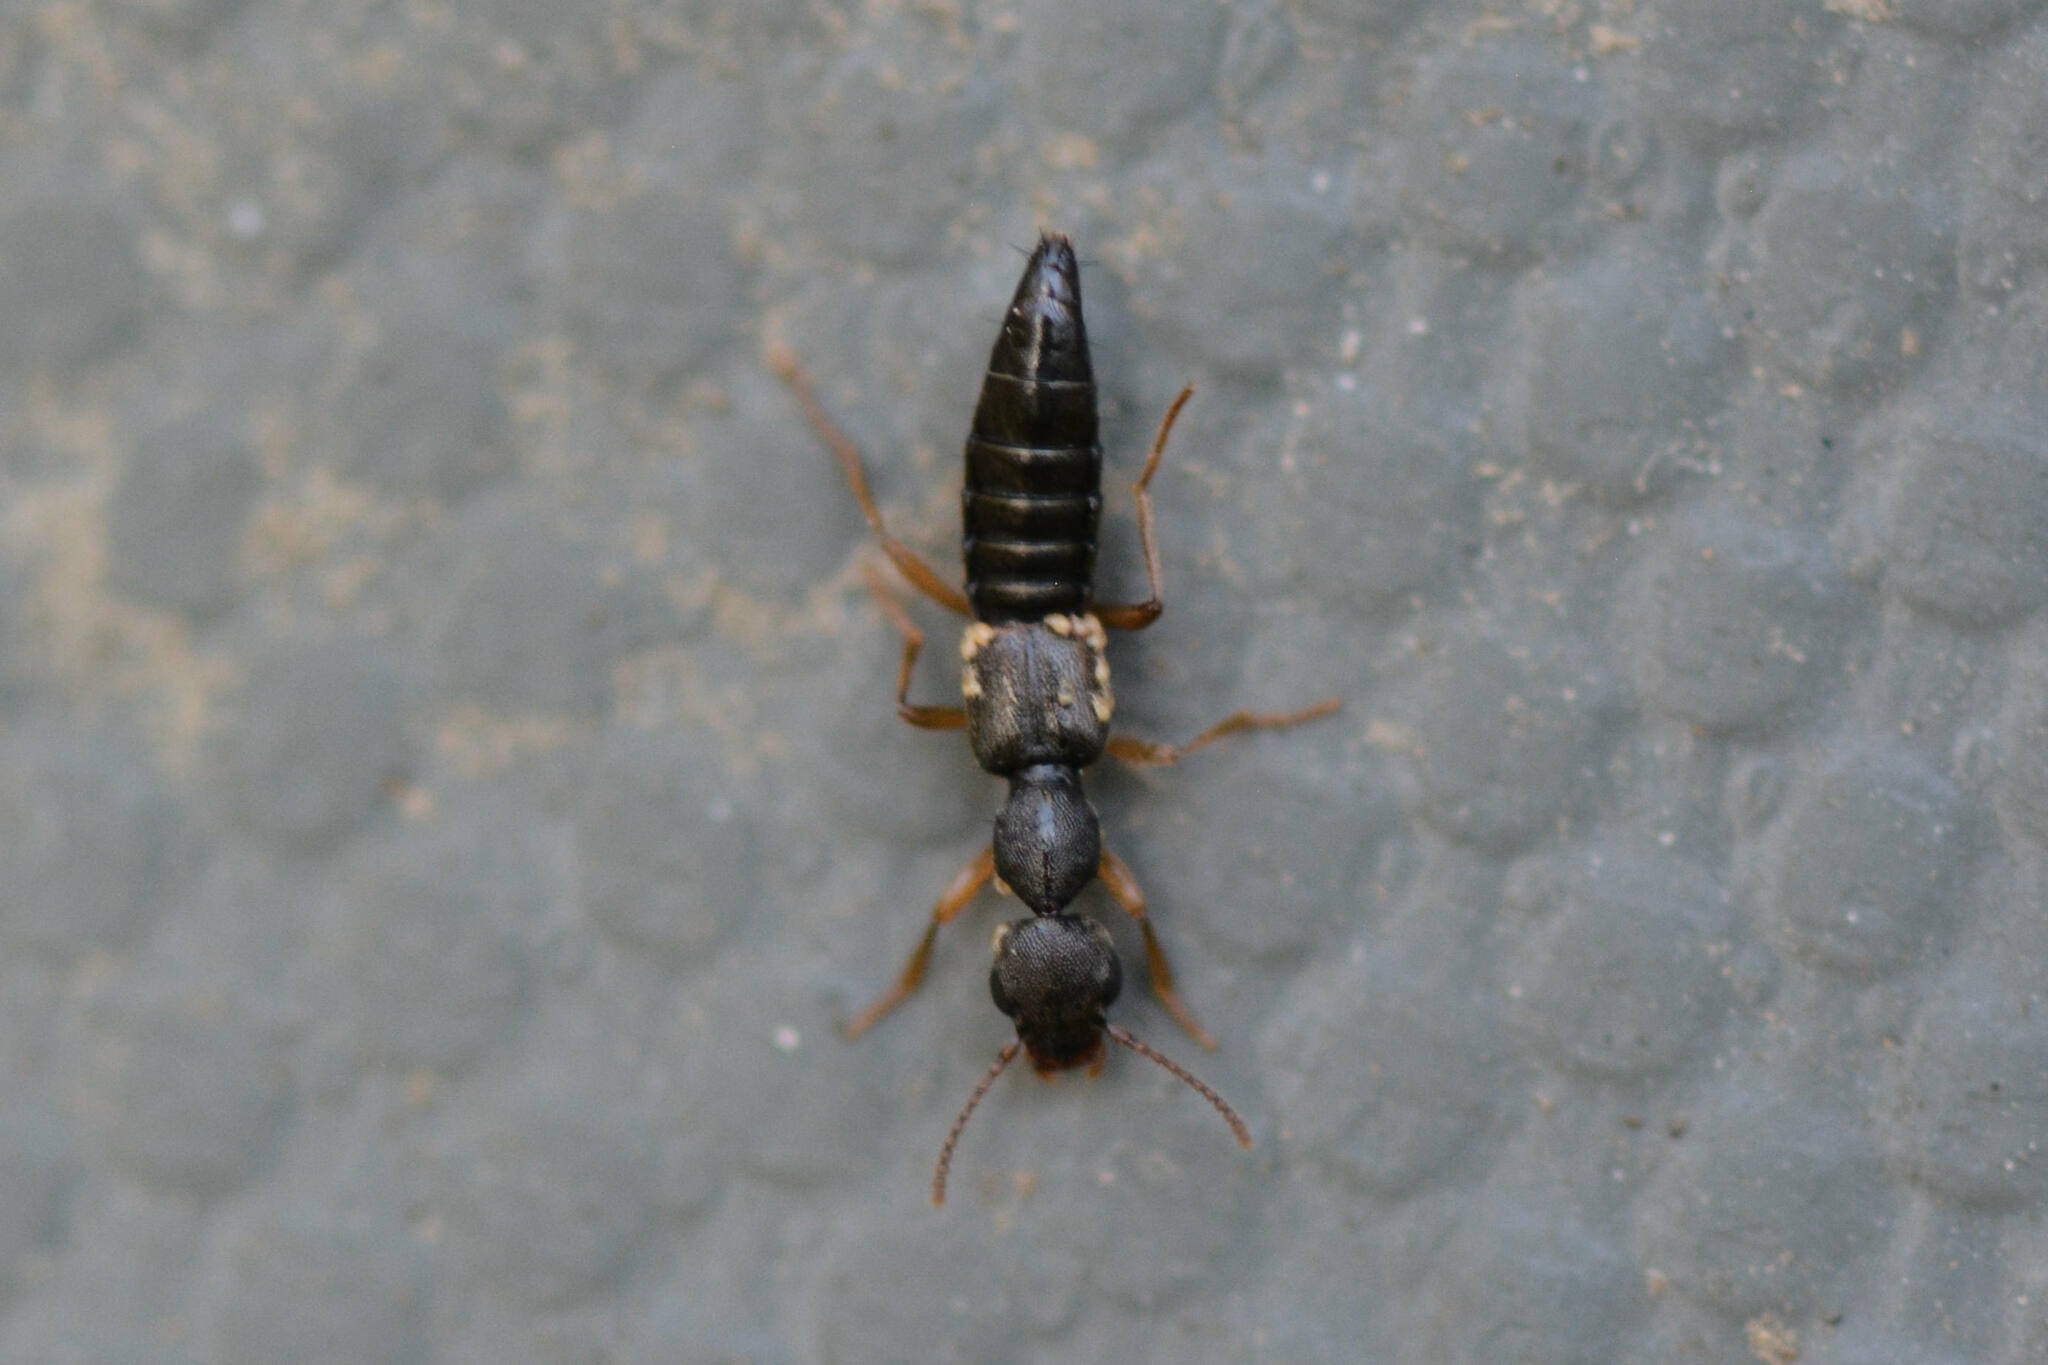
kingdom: Animalia
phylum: Arthropoda
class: Insecta
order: Coleoptera
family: Staphylinidae
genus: Rugilus
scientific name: Rugilus erichsonii
